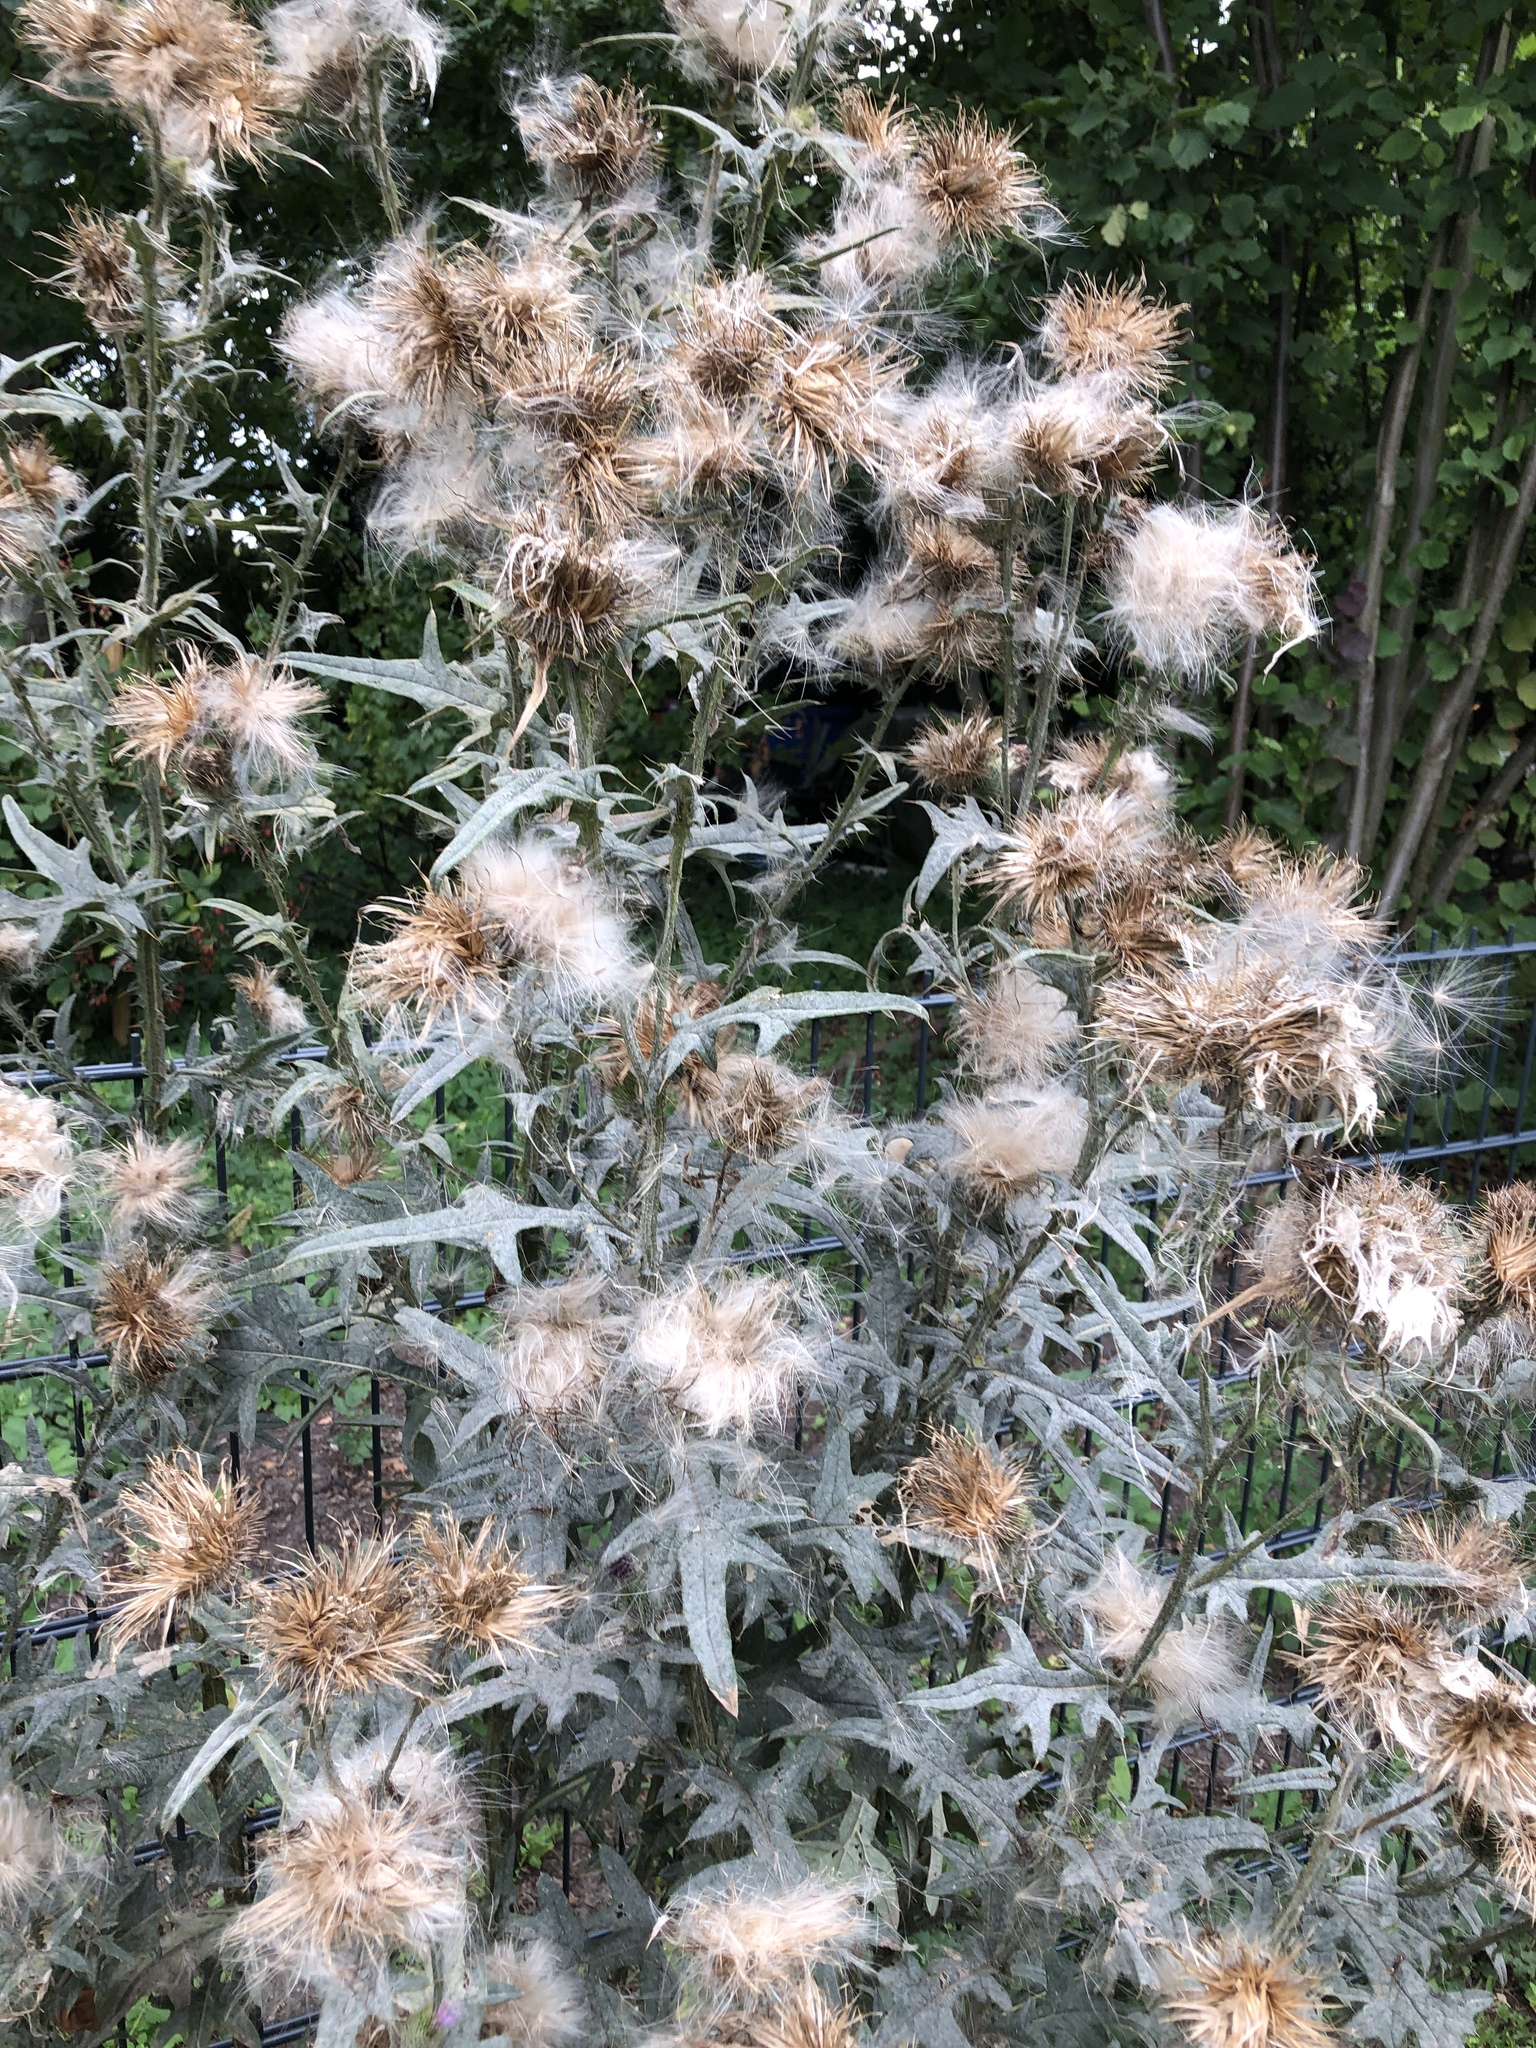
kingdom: Plantae
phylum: Tracheophyta
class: Magnoliopsida
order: Asterales
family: Asteraceae
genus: Cirsium
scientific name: Cirsium vulgare
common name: Bull thistle
